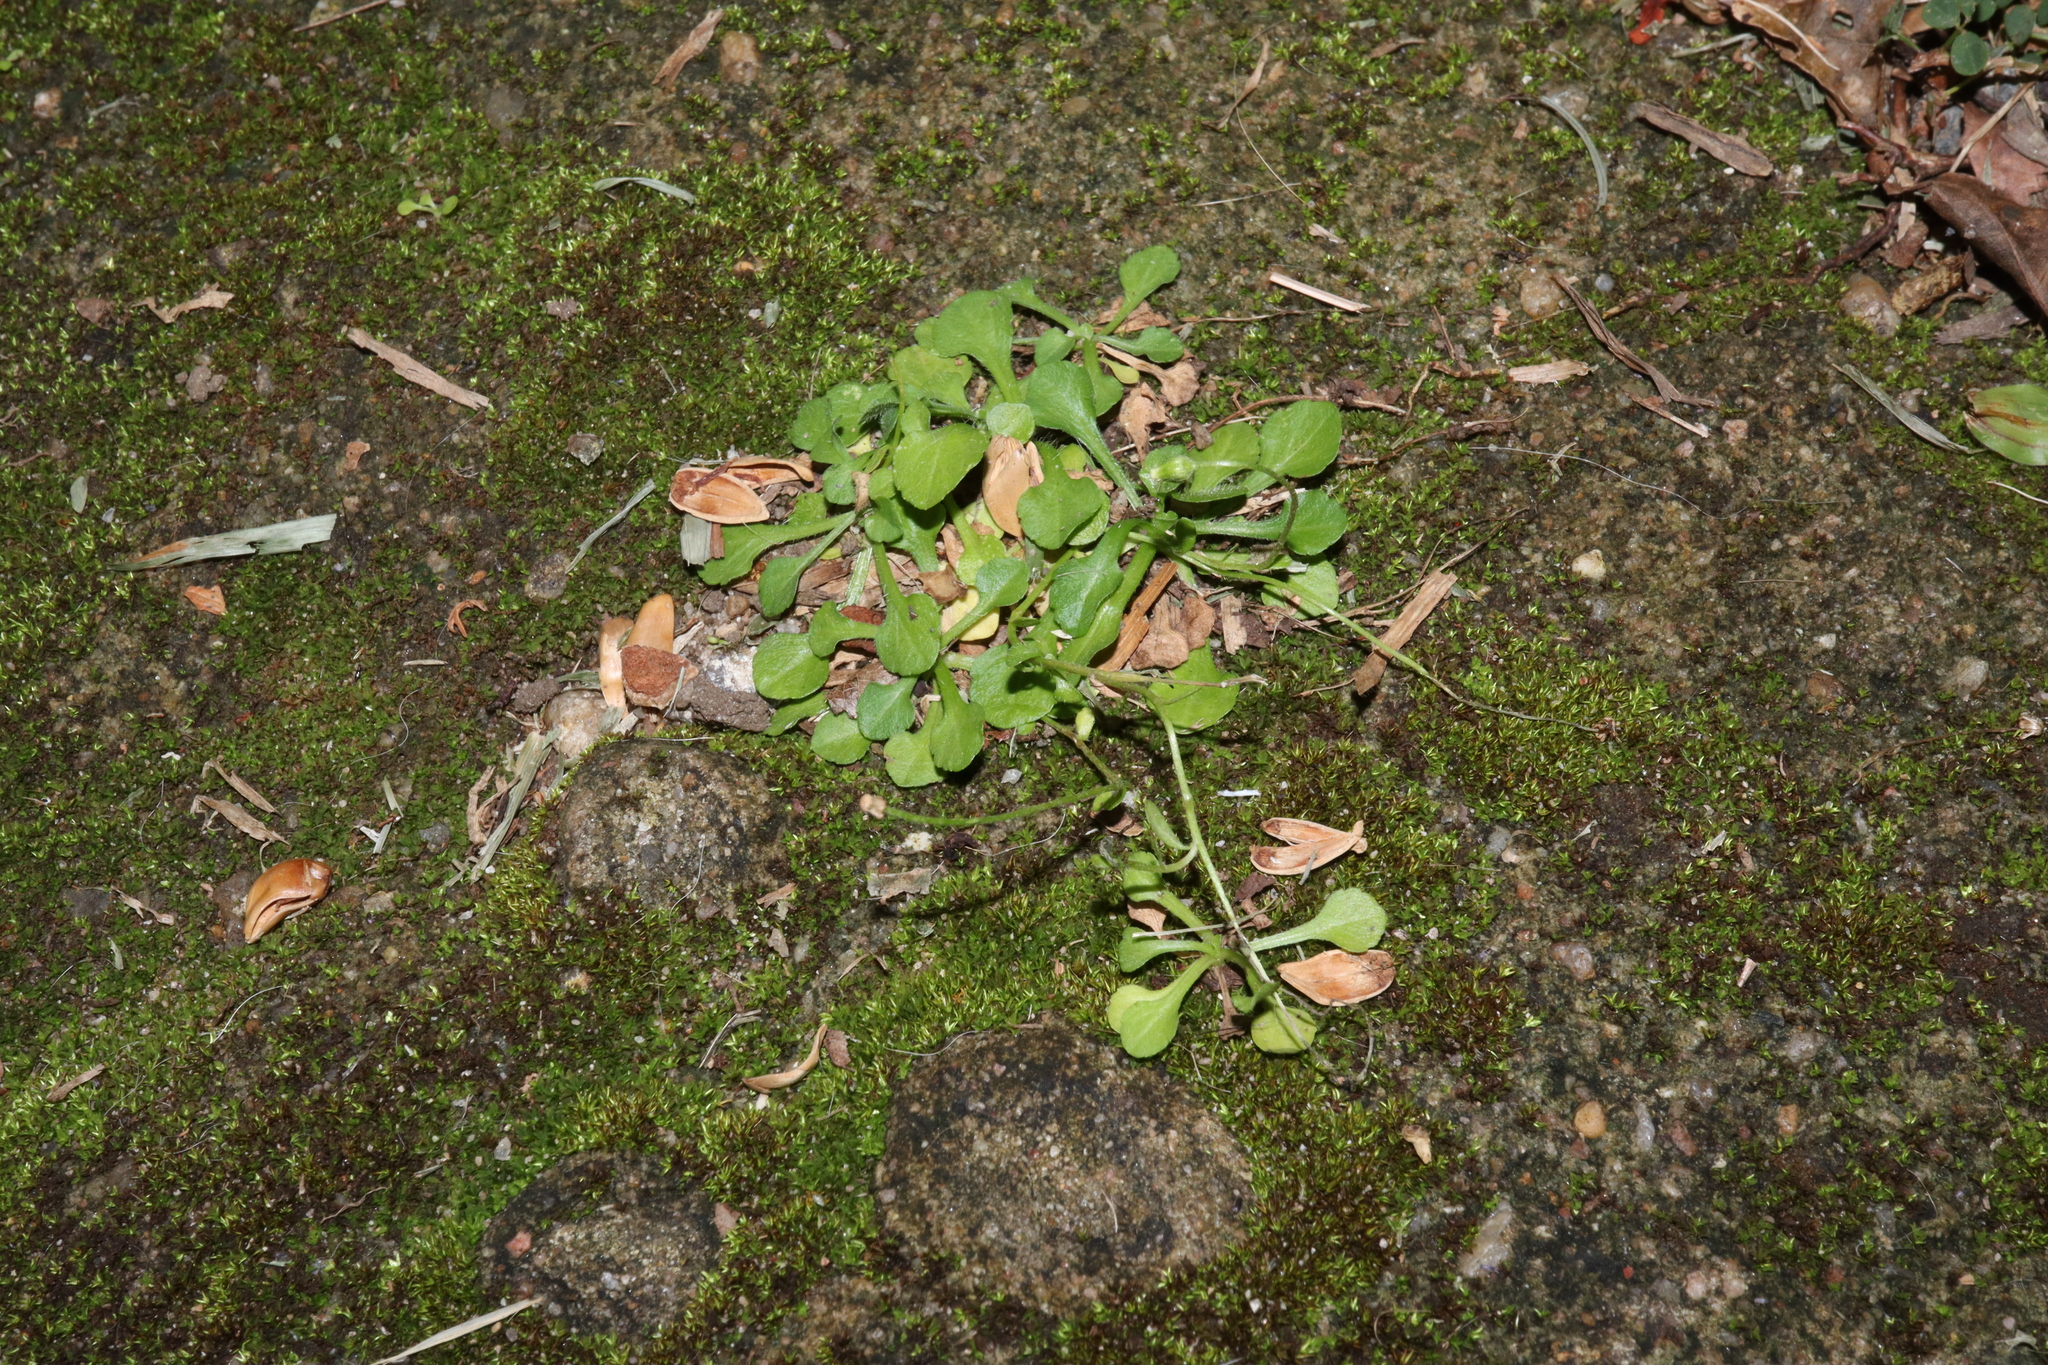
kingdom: Plantae
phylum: Tracheophyta
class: Magnoliopsida
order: Asterales
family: Asteraceae
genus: Erigeron
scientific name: Erigeron bellioides
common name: Bellorita
